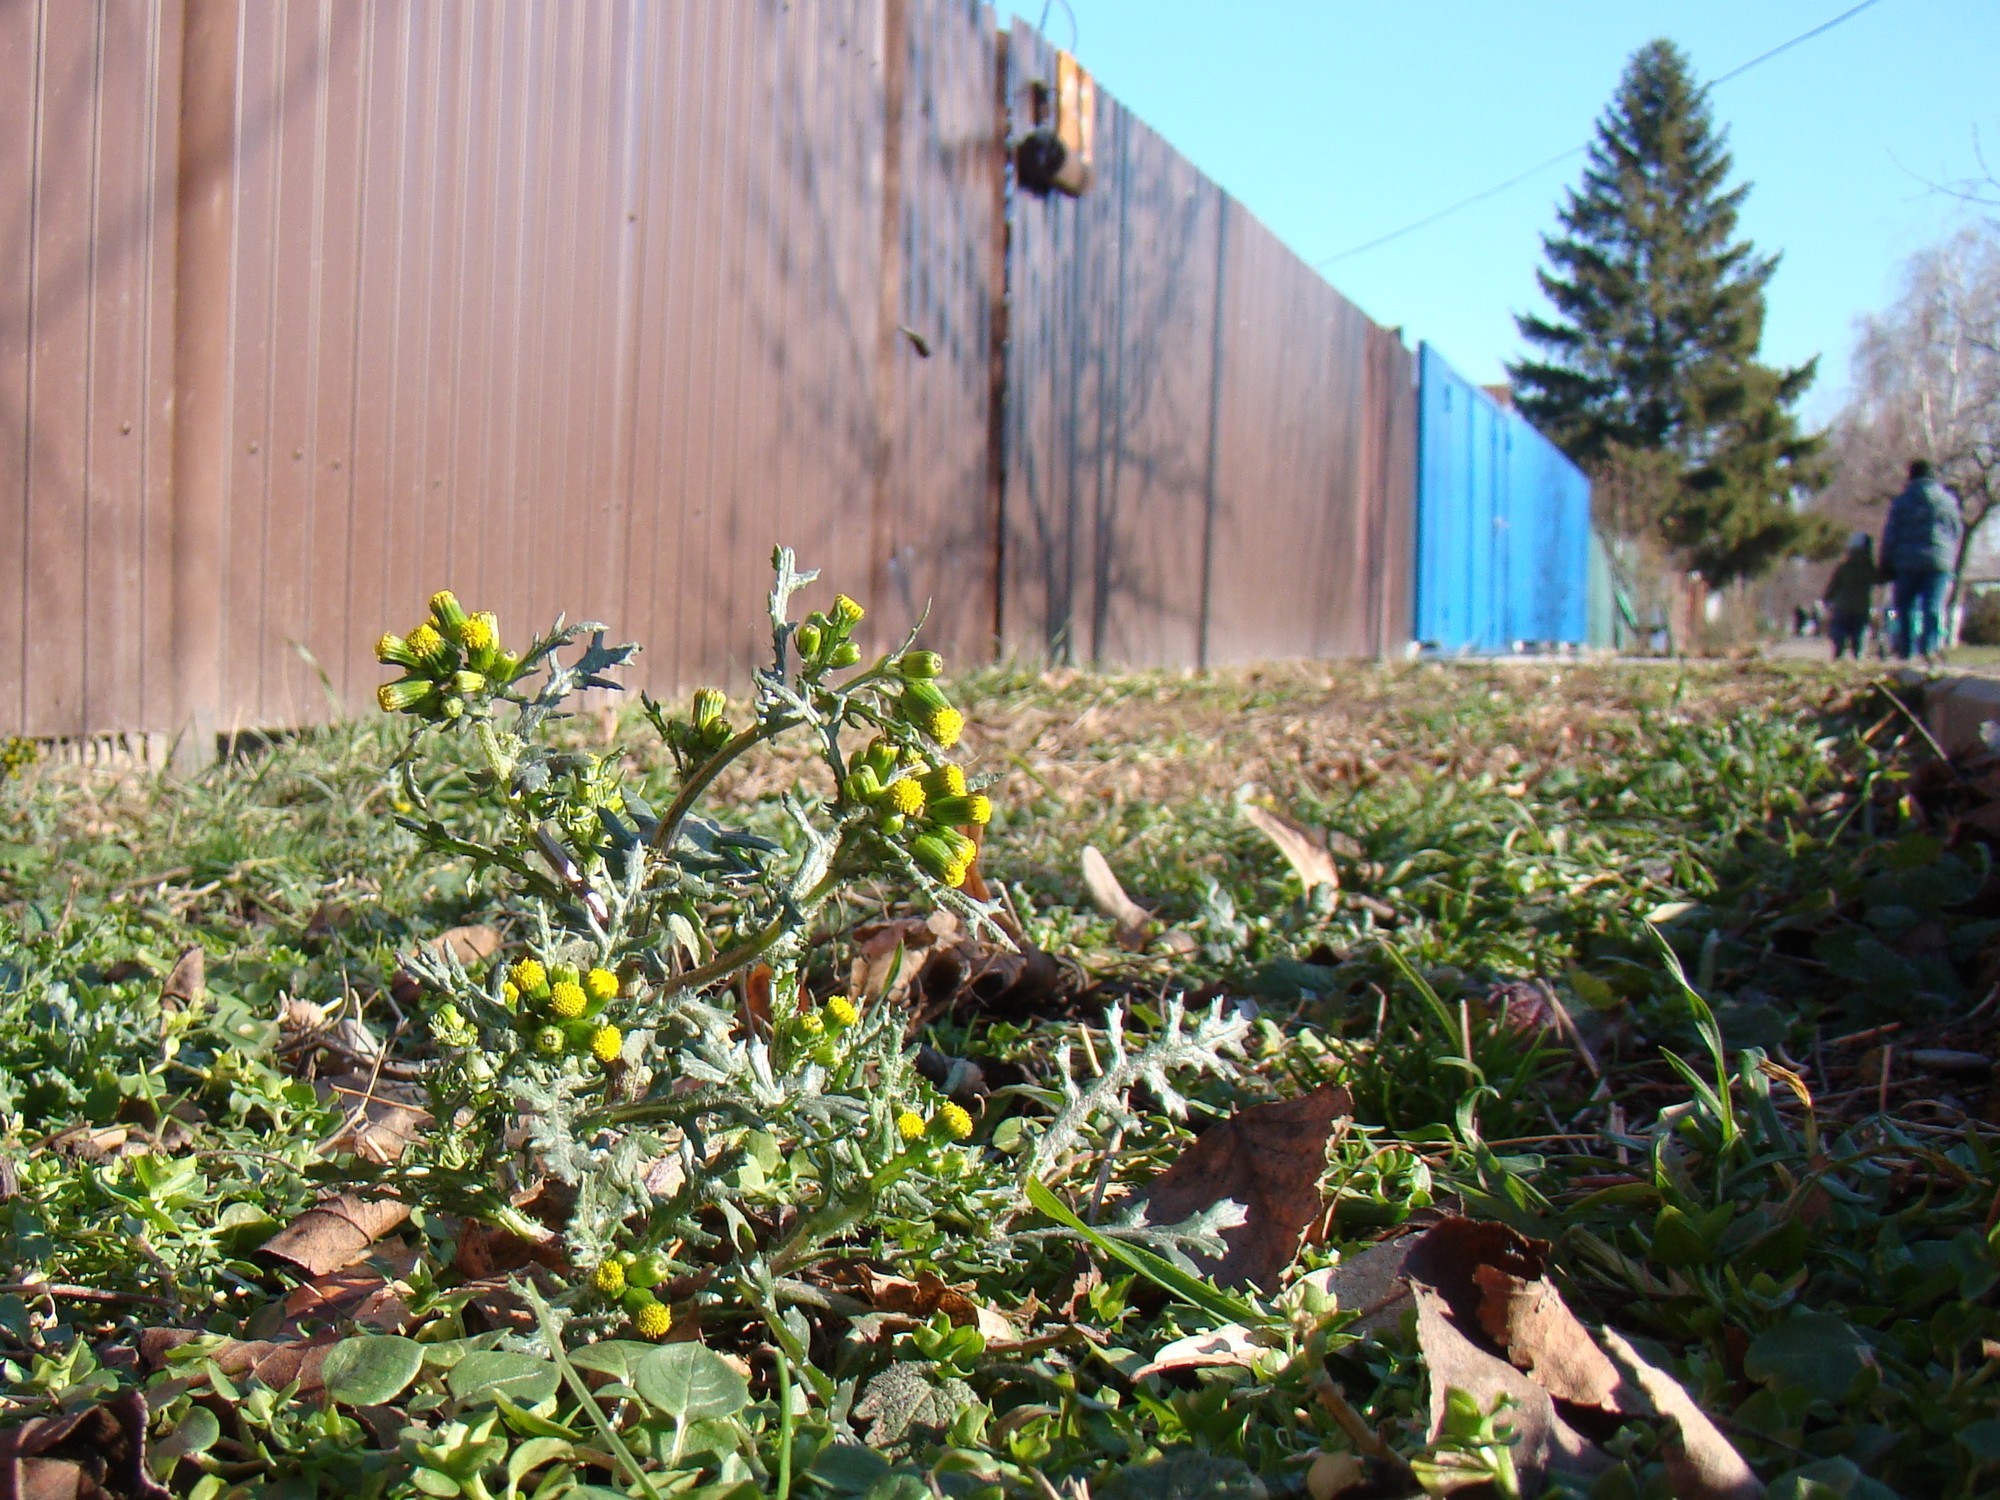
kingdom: Plantae
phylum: Tracheophyta
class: Magnoliopsida
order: Asterales
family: Asteraceae
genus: Senecio
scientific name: Senecio vulgaris
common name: Old-man-in-the-spring
